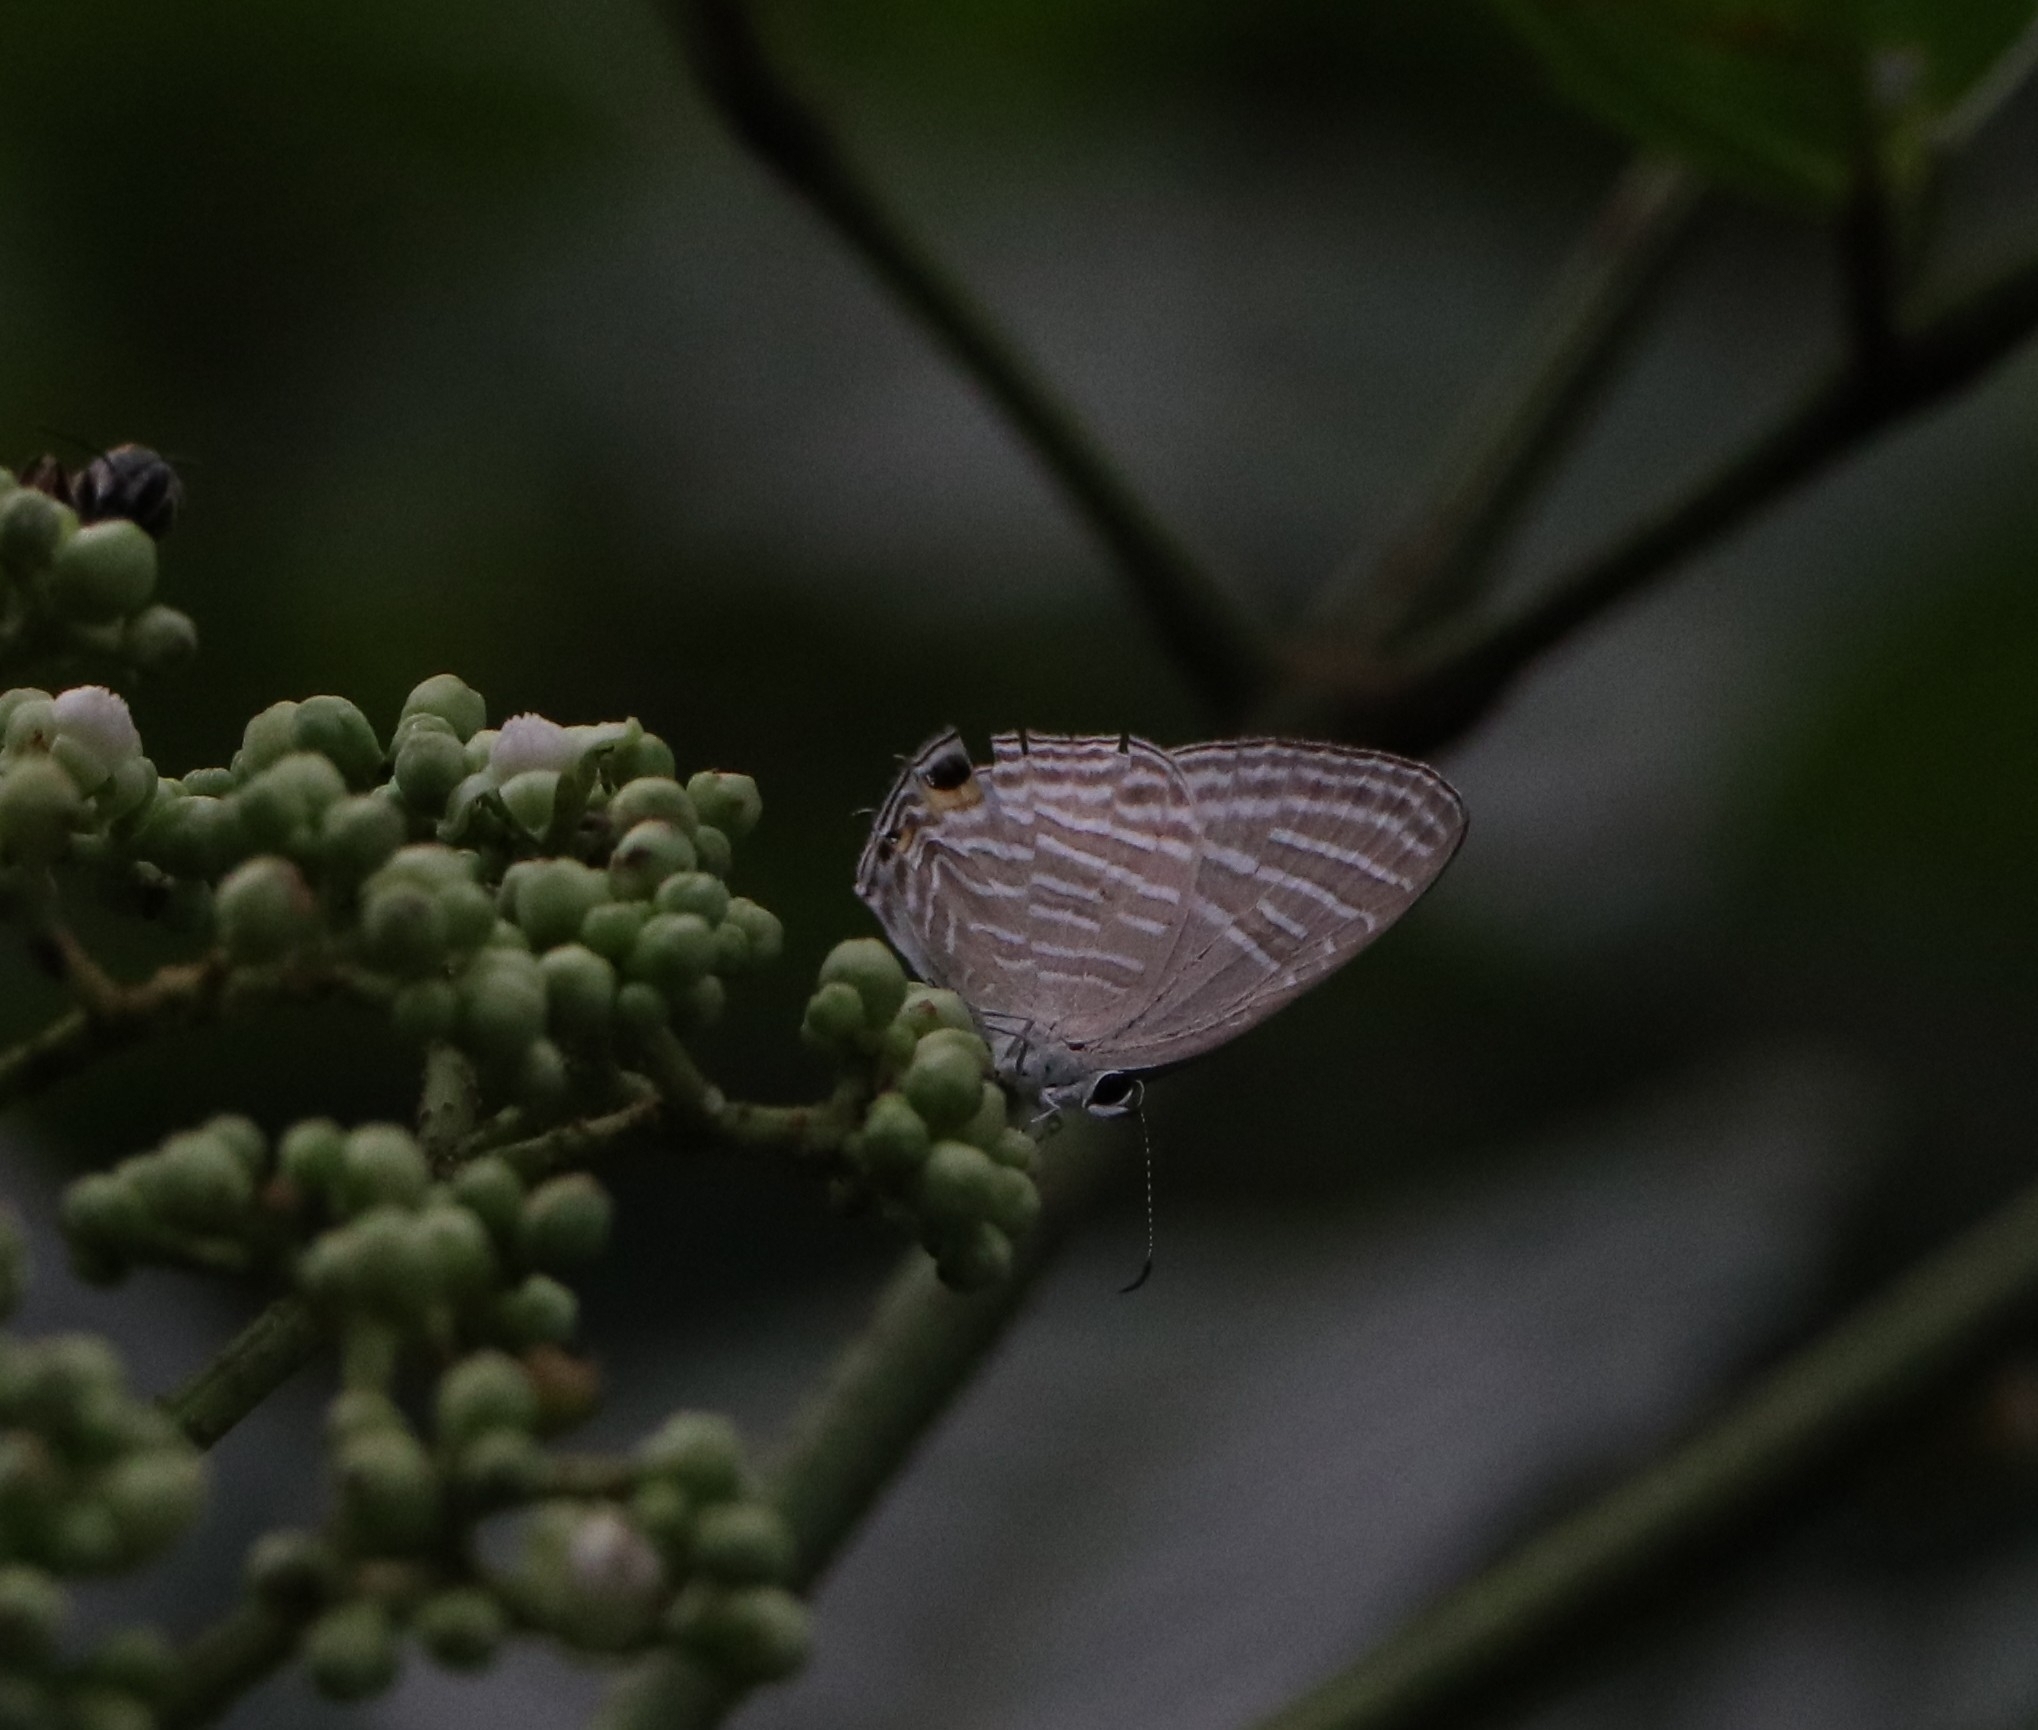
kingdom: Animalia
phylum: Arthropoda
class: Insecta
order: Lepidoptera
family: Lycaenidae
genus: Jamides
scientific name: Jamides celeno
